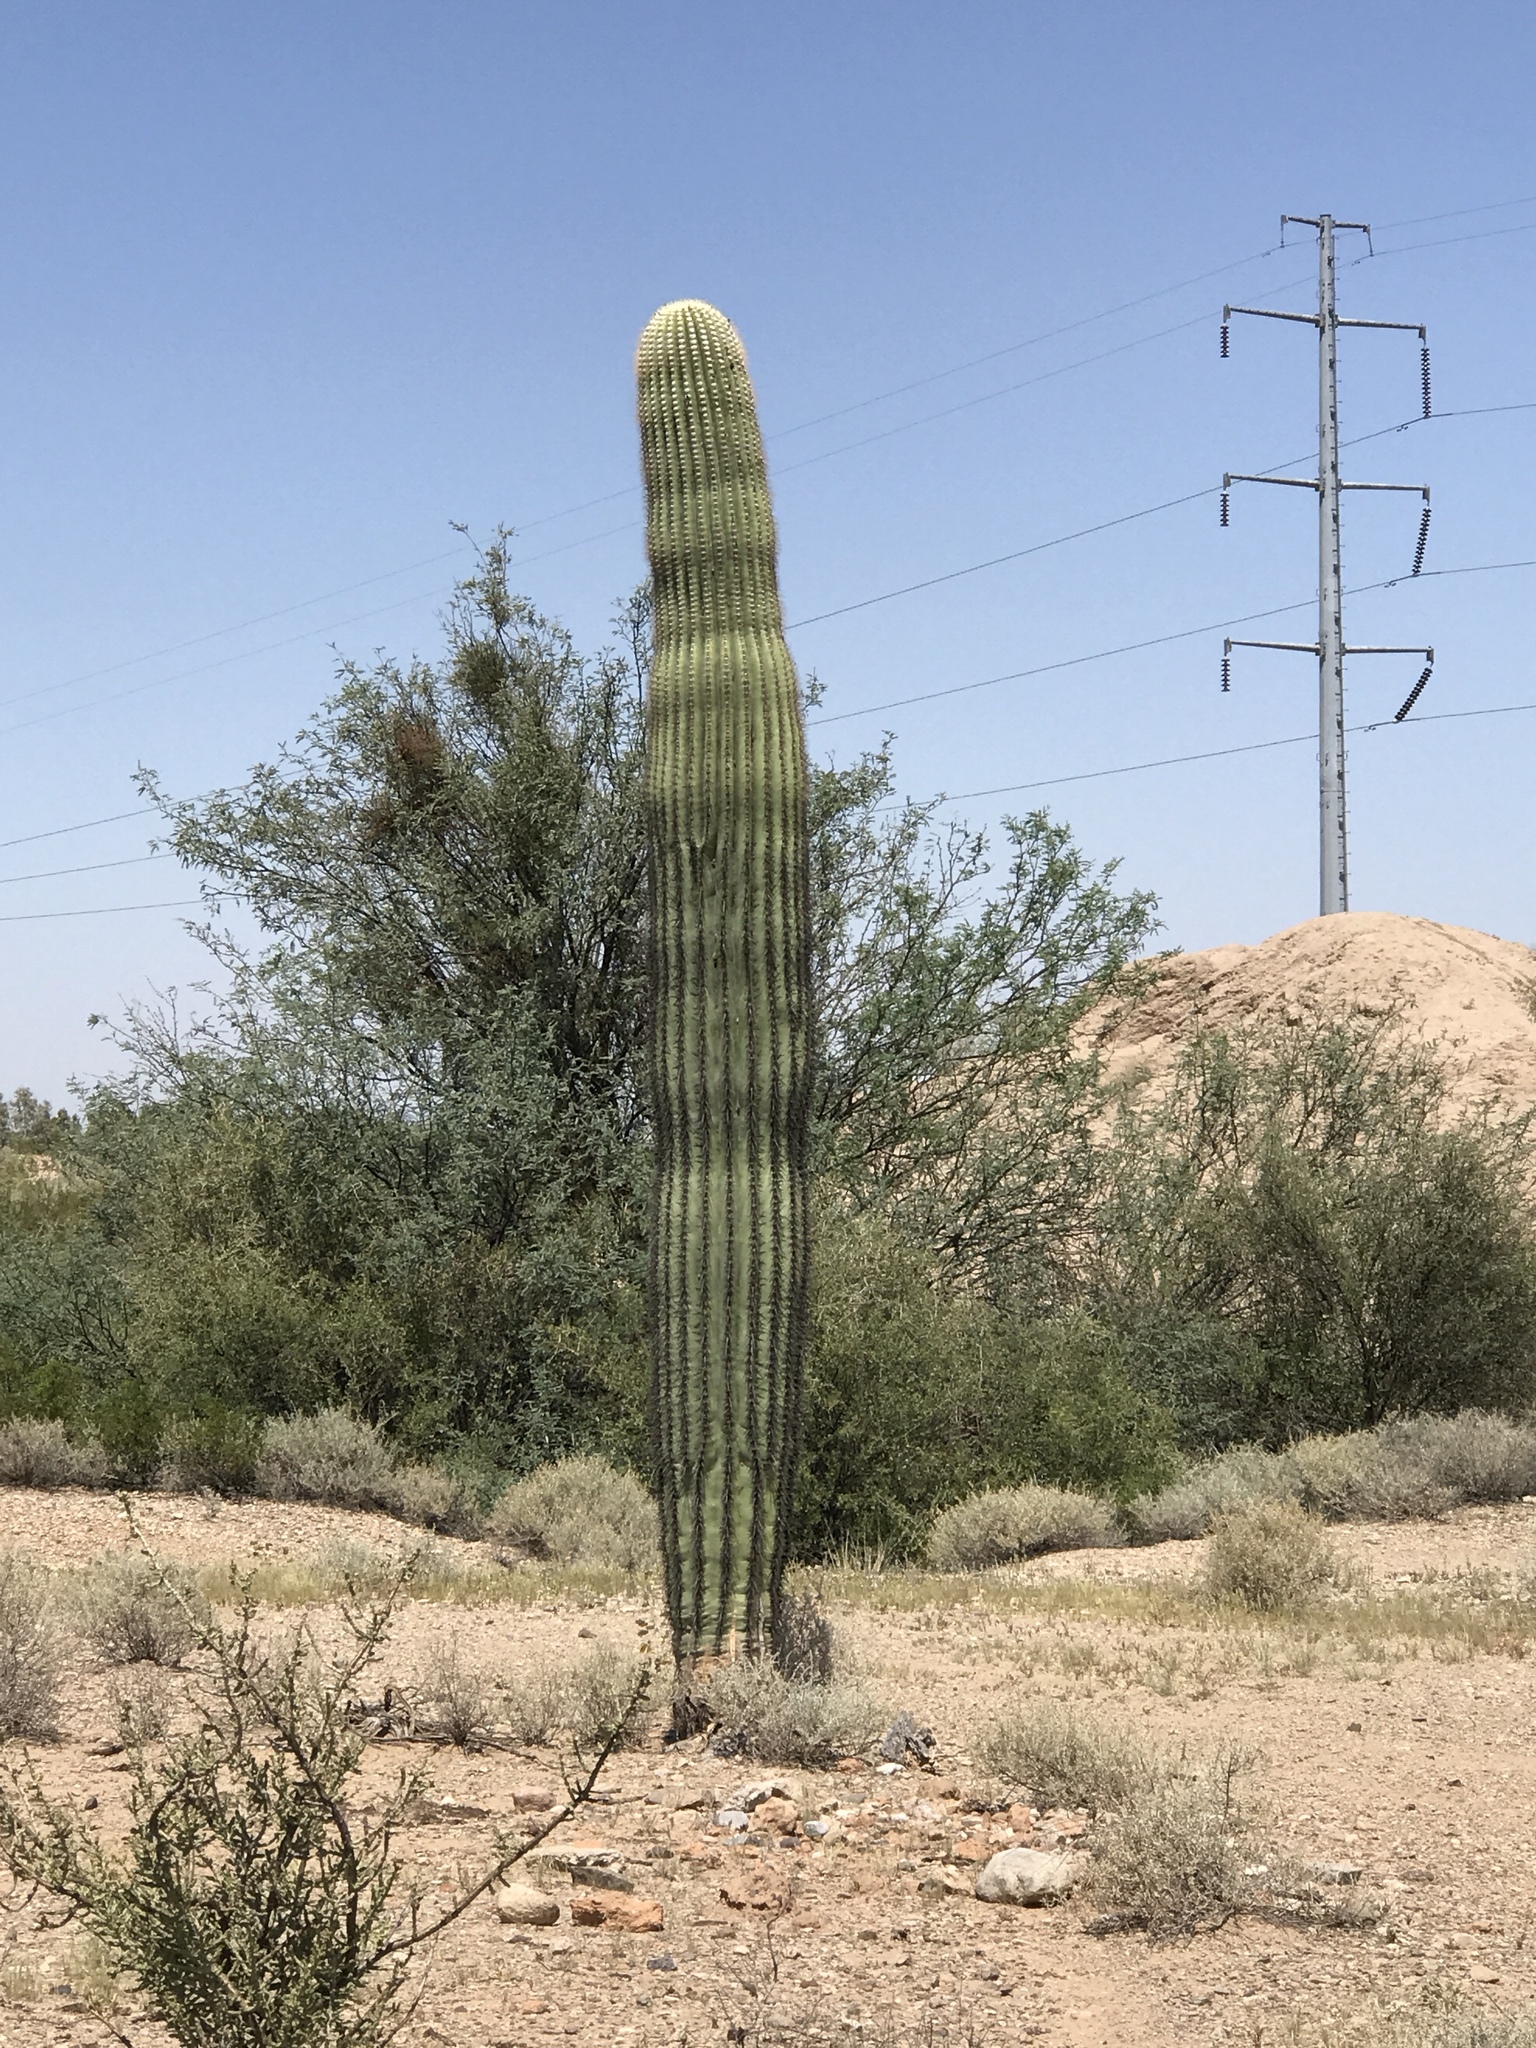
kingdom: Plantae
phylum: Tracheophyta
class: Magnoliopsida
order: Caryophyllales
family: Cactaceae
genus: Carnegiea
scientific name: Carnegiea gigantea
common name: Saguaro
